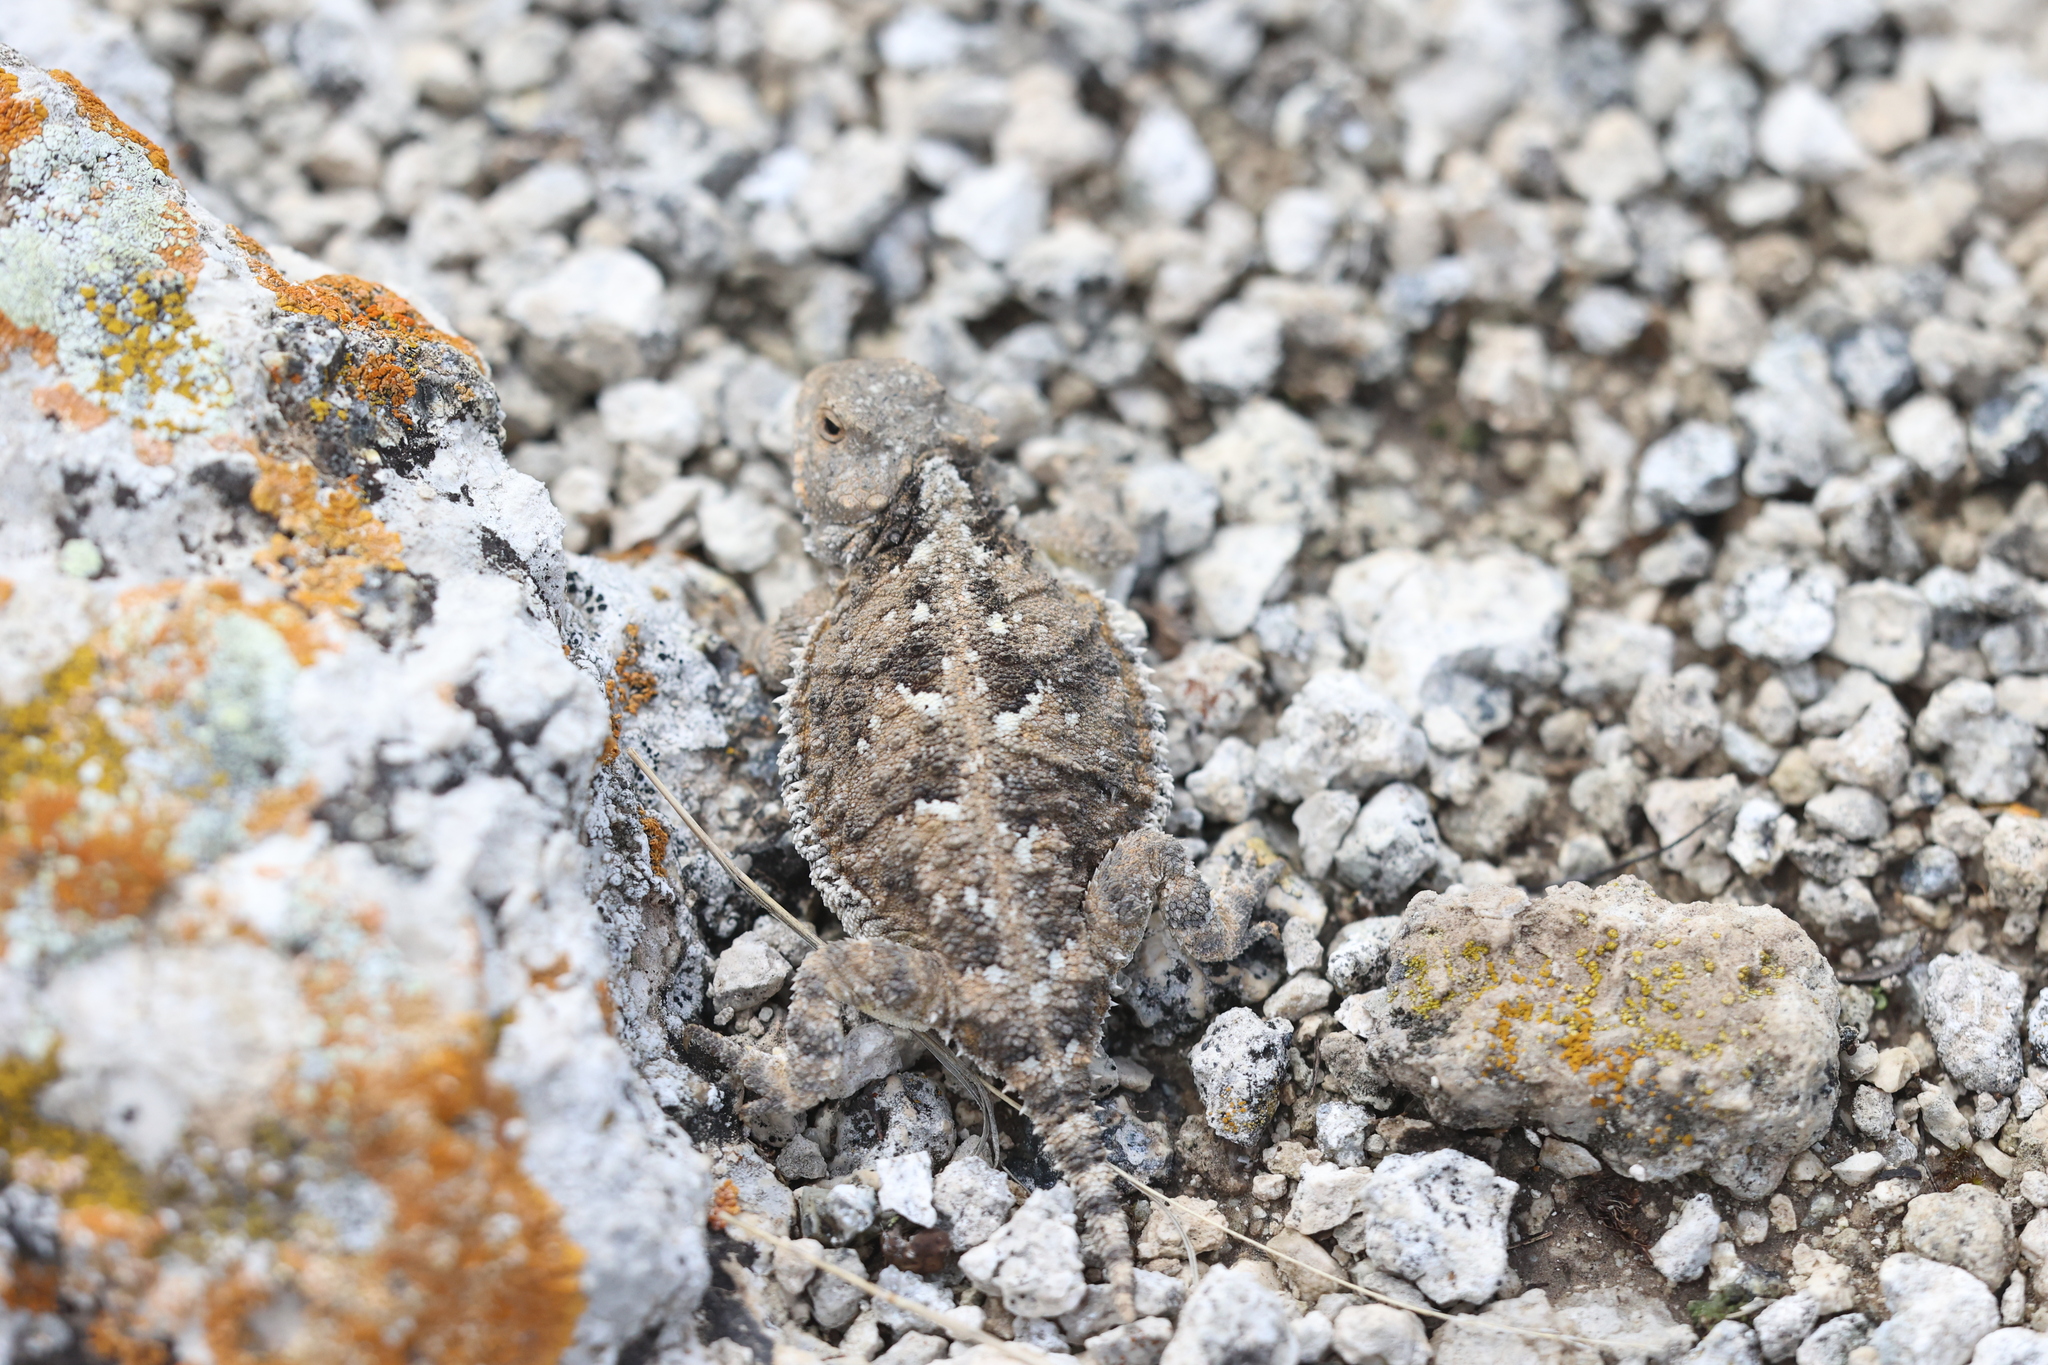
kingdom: Animalia
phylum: Chordata
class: Squamata
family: Phrynosomatidae
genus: Phrynosoma
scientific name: Phrynosoma hernandesi
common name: Greater short-horned lizard
